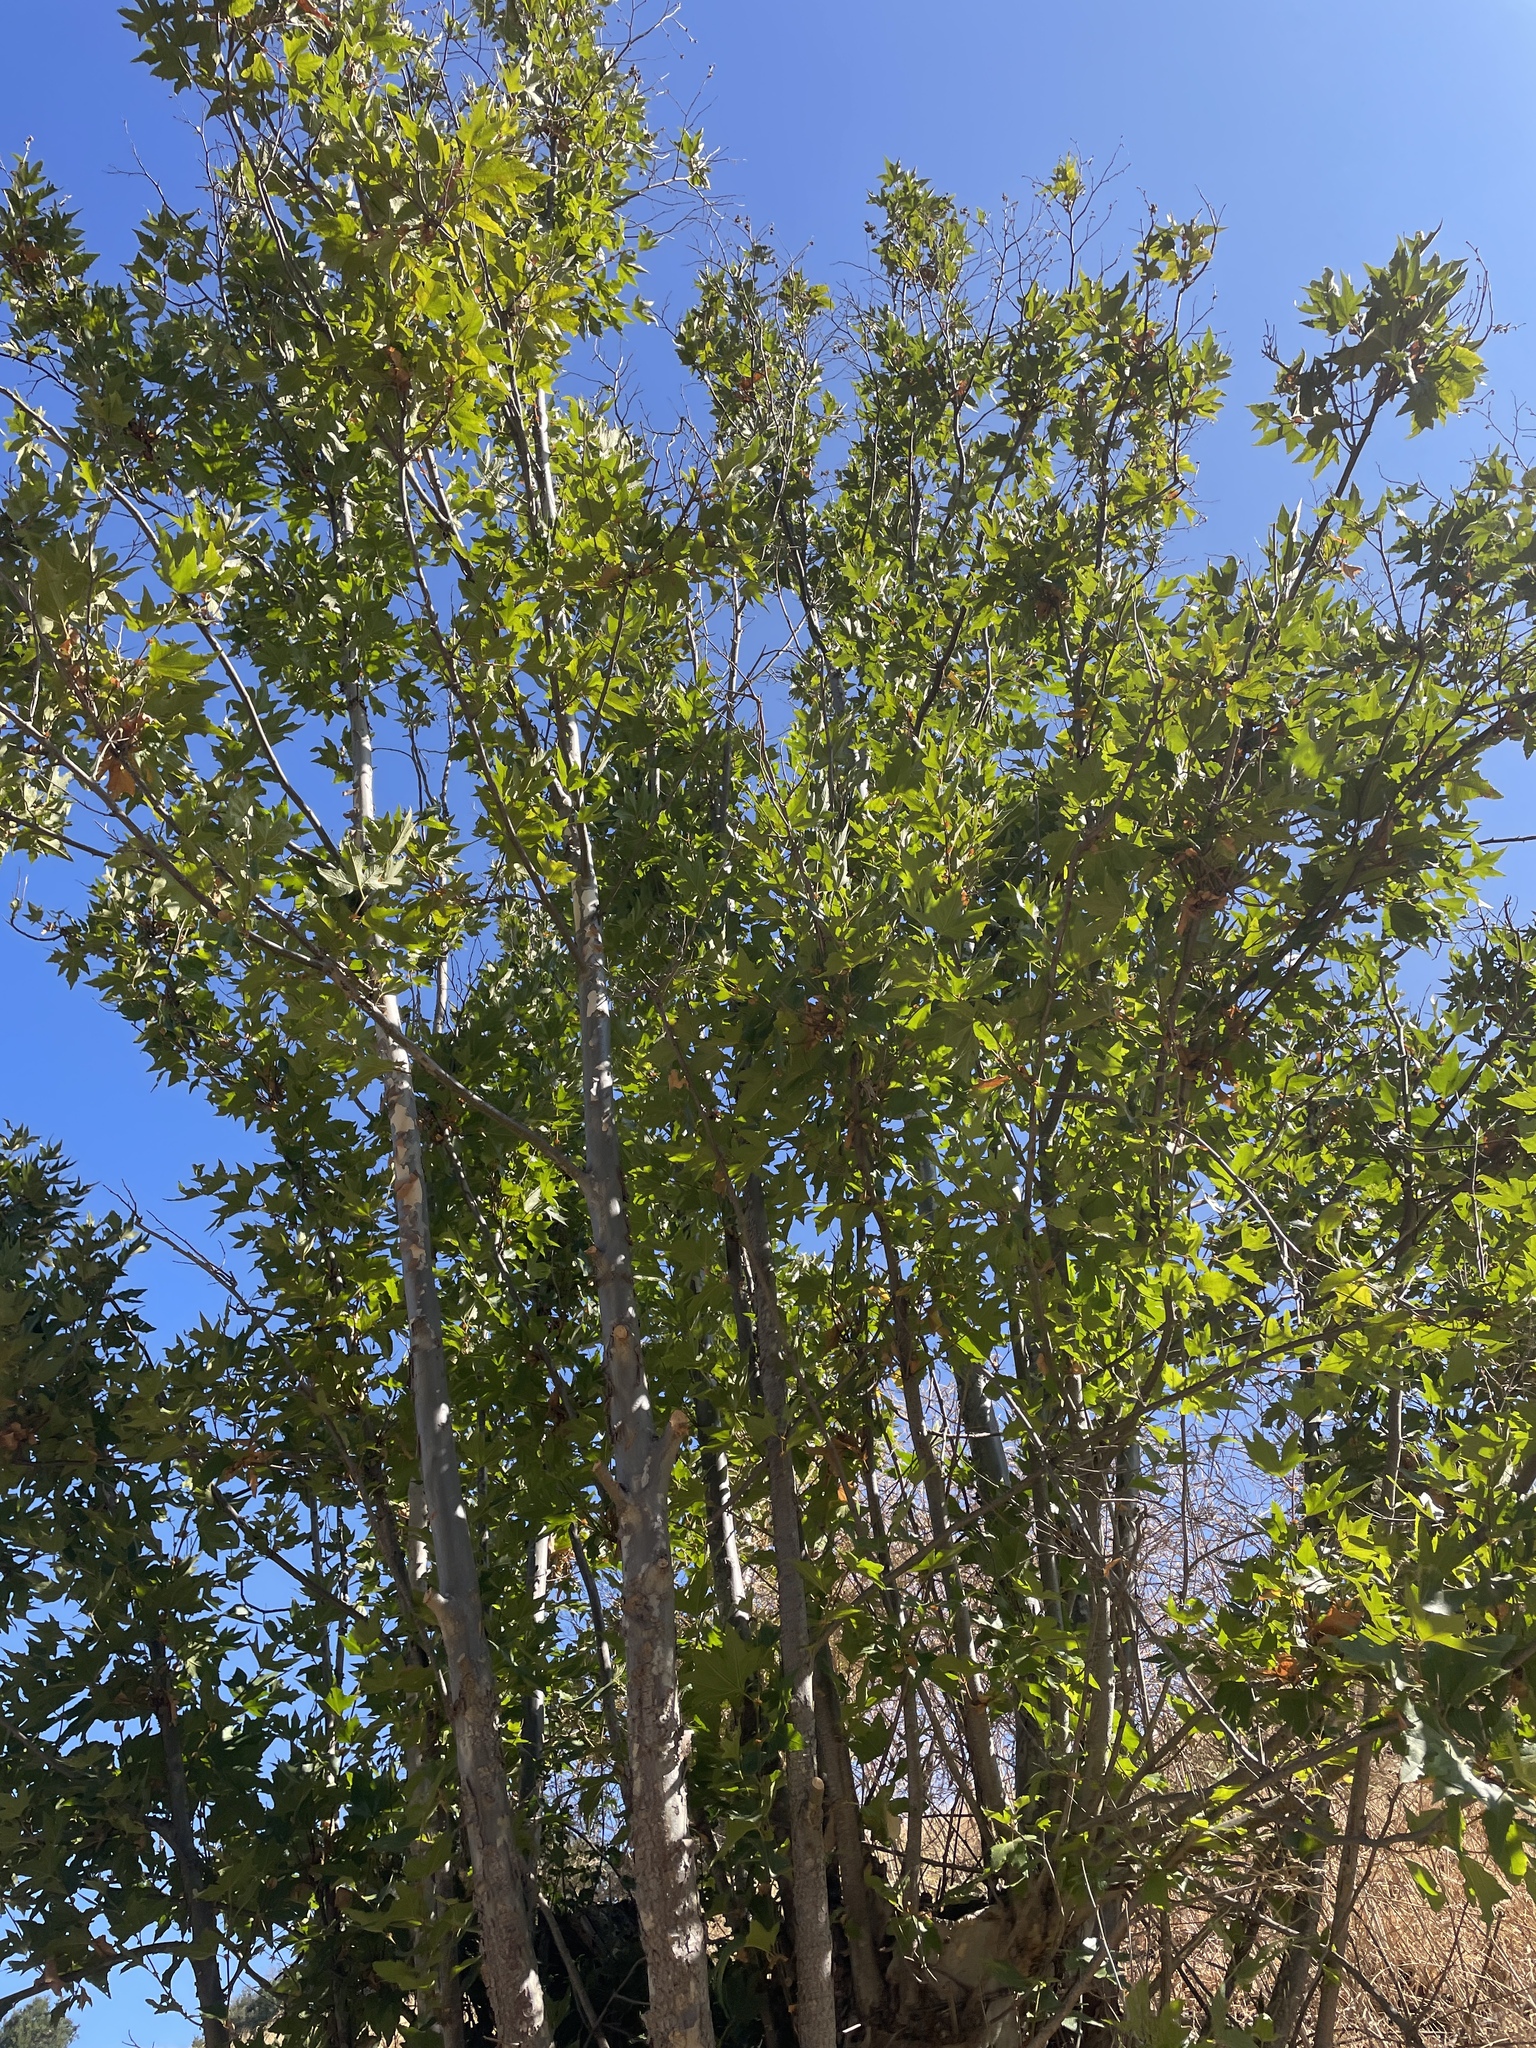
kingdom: Plantae
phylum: Tracheophyta
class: Magnoliopsida
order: Proteales
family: Platanaceae
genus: Platanus
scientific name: Platanus racemosa
